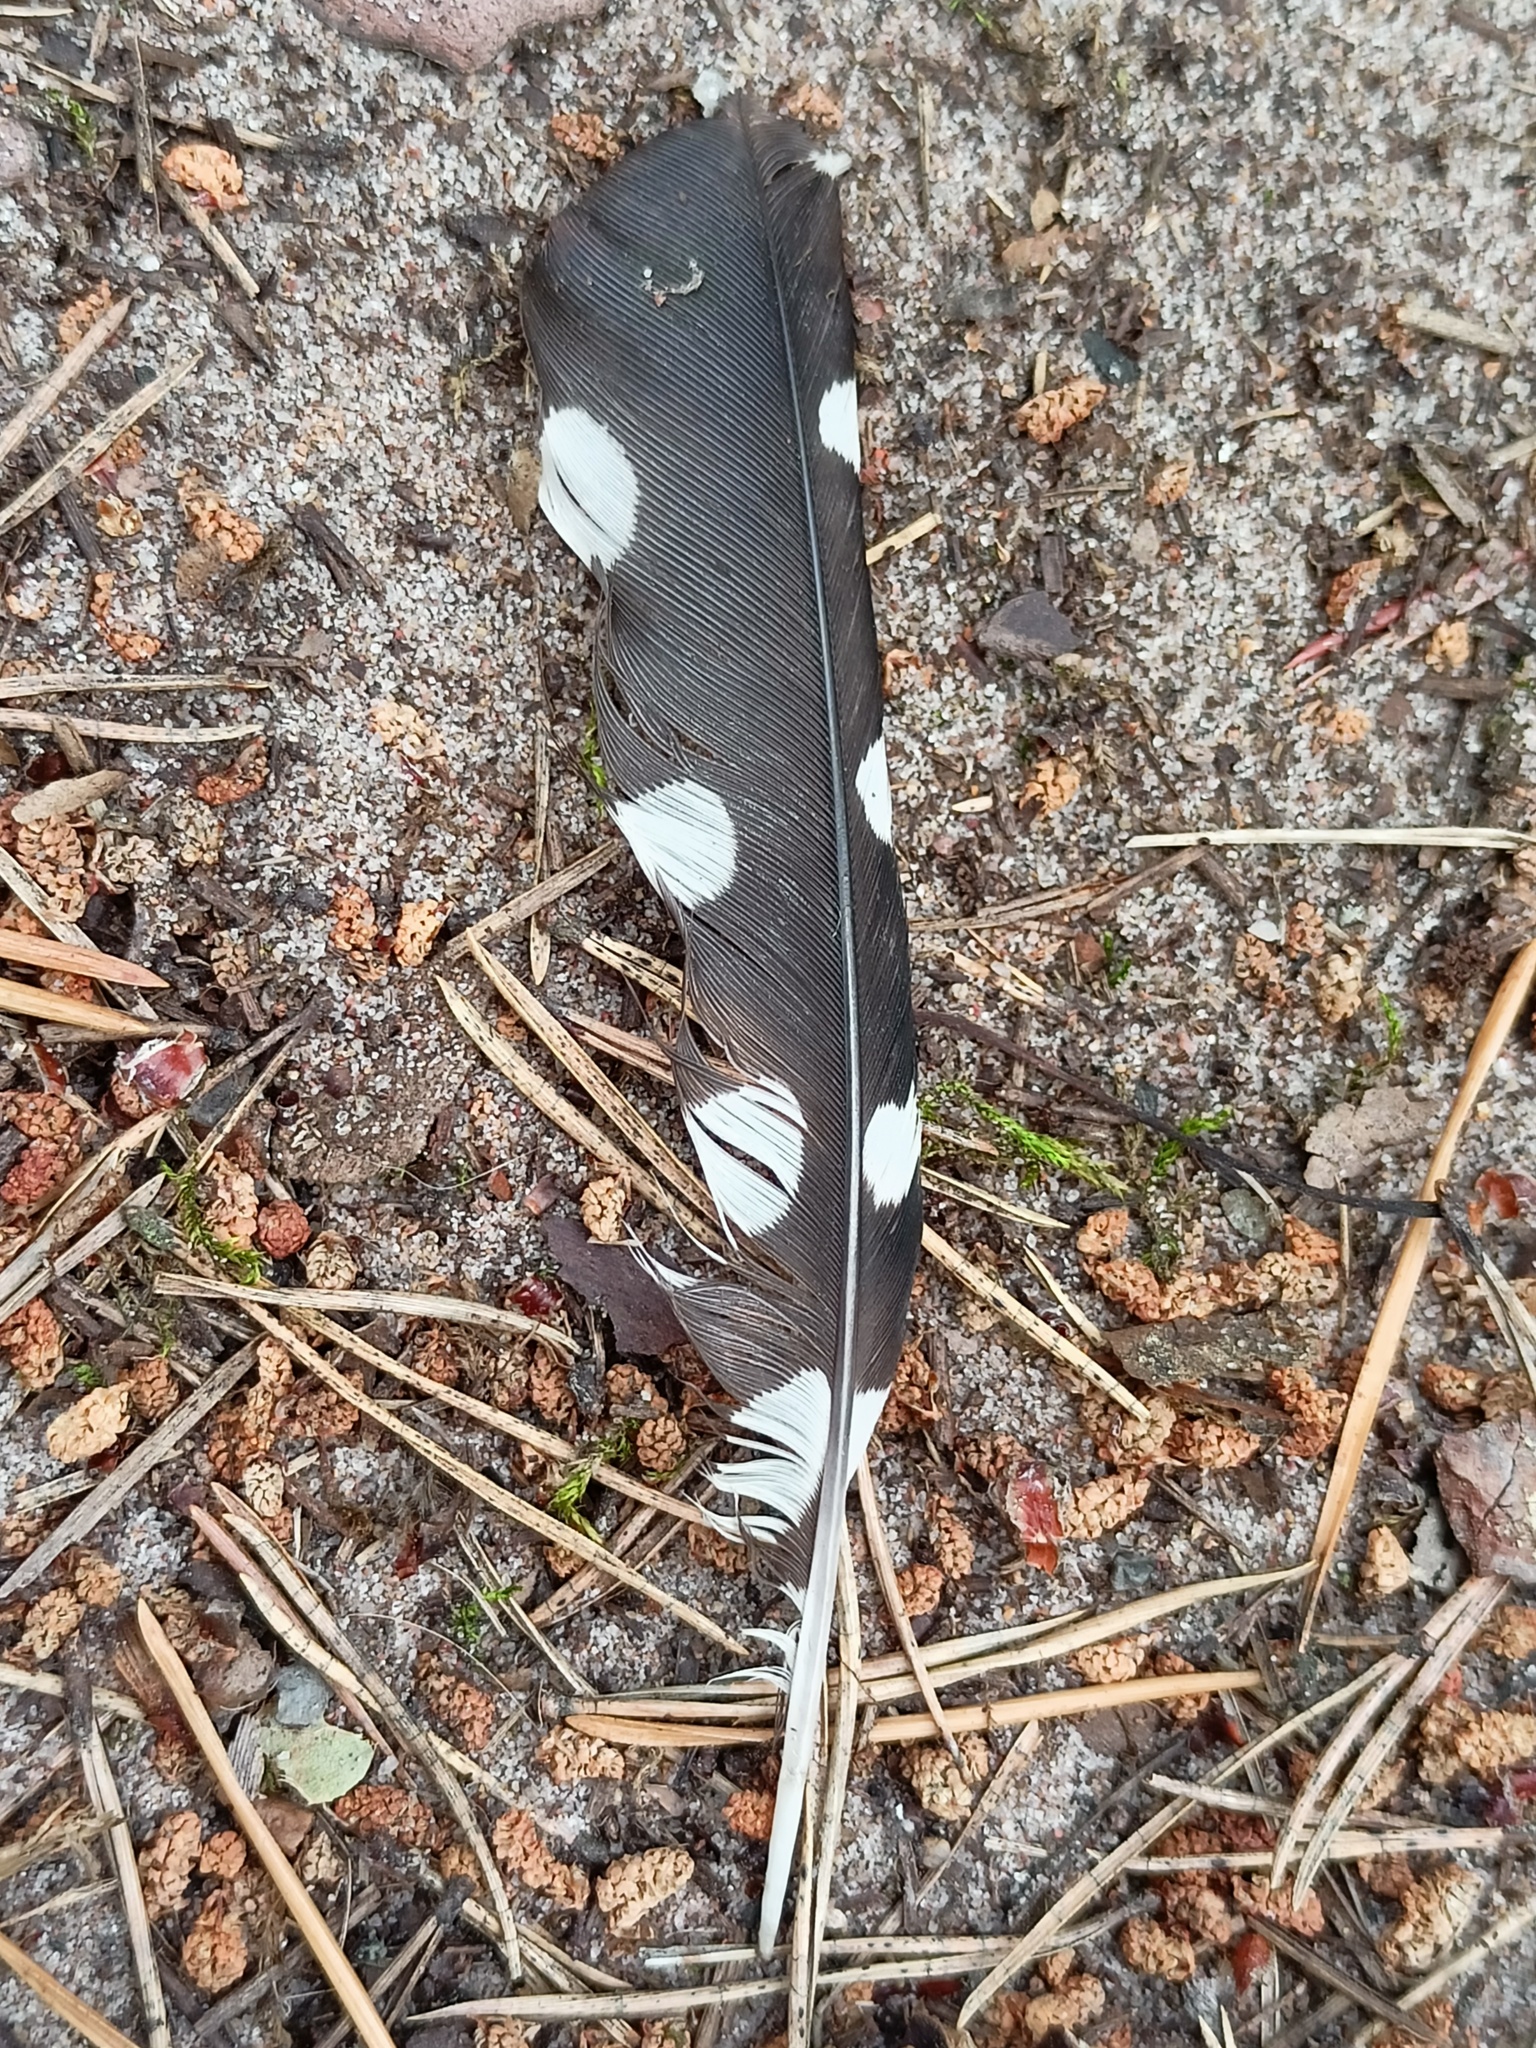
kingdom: Animalia
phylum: Chordata
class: Aves
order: Piciformes
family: Picidae
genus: Dendrocopos
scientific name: Dendrocopos major
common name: Great spotted woodpecker
